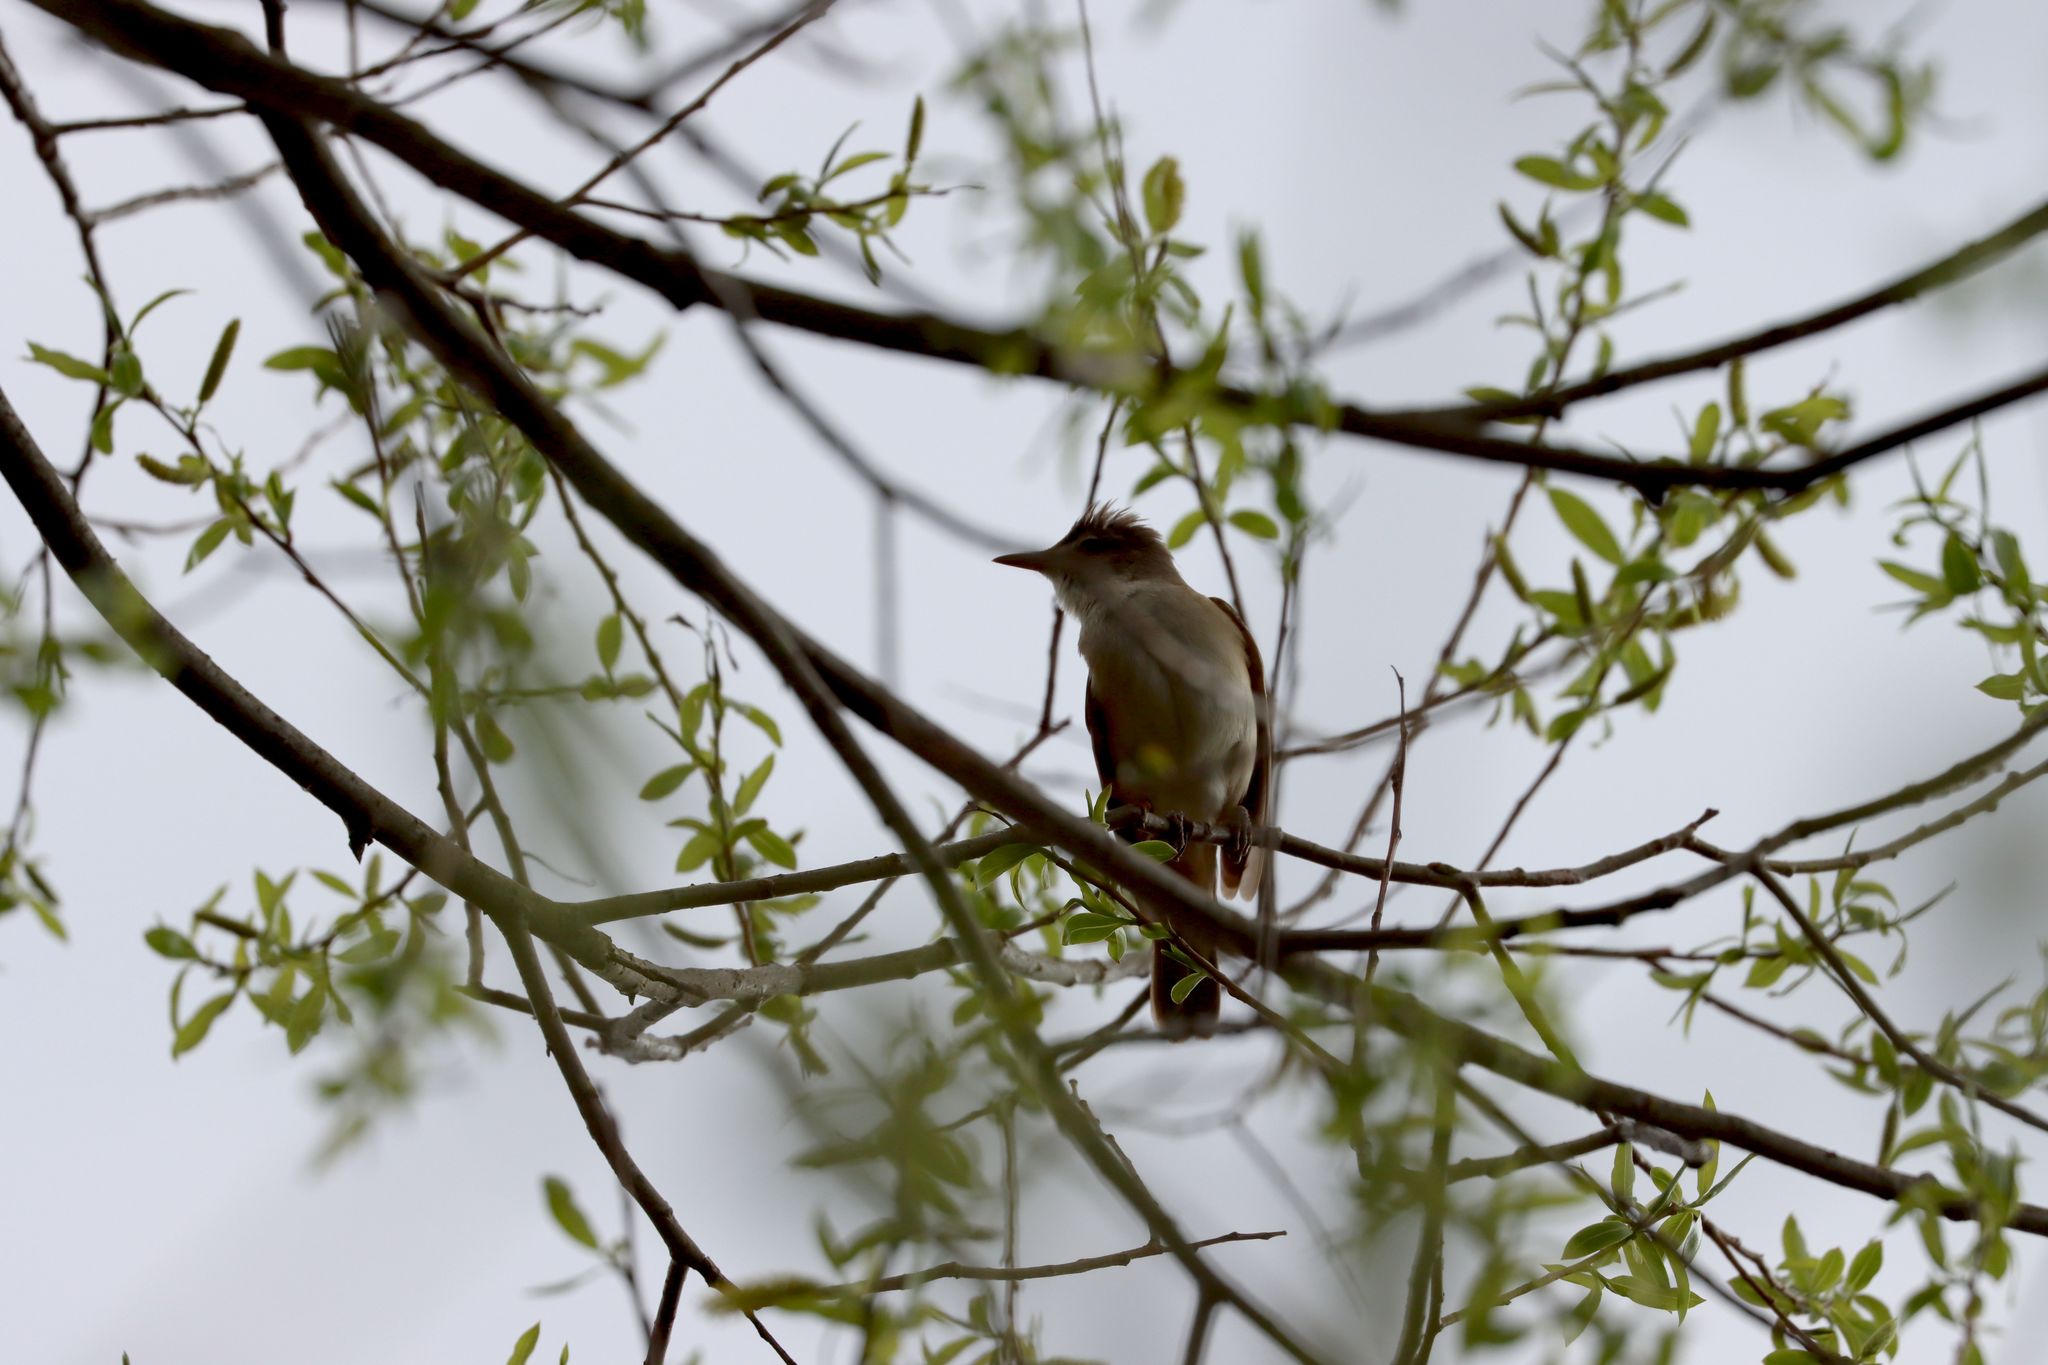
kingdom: Animalia
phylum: Chordata
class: Aves
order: Passeriformes
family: Acrocephalidae
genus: Acrocephalus
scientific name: Acrocephalus arundinaceus
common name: Great reed warbler
